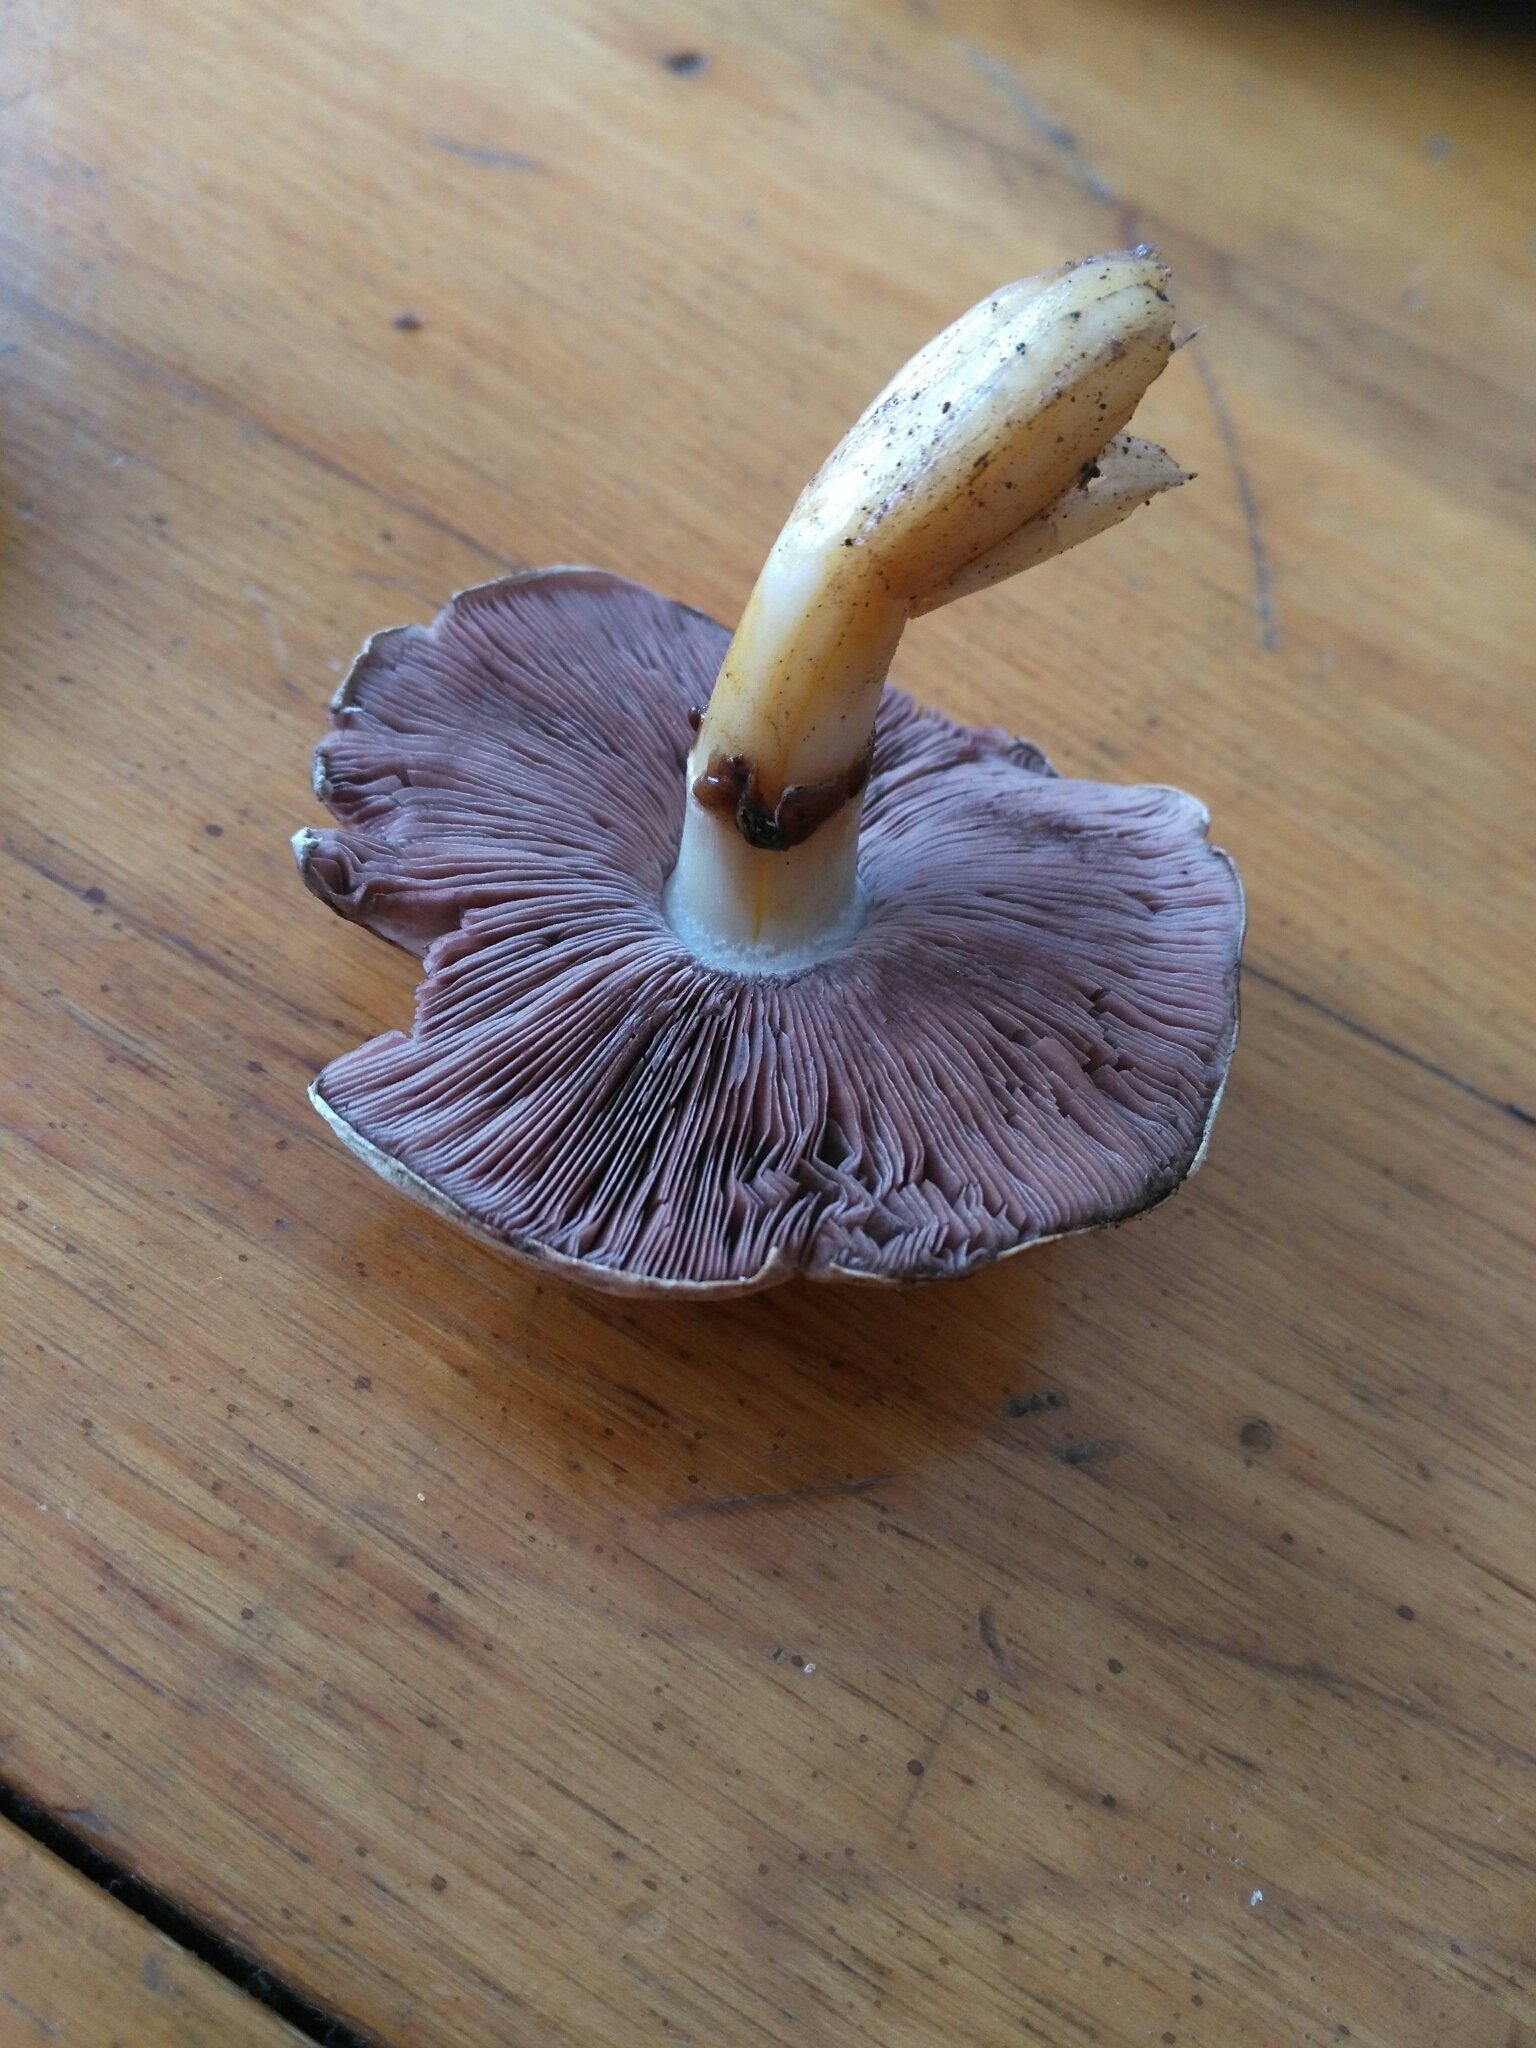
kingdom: Fungi
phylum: Basidiomycota
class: Agaricomycetes
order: Agaricales
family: Agaricaceae
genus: Agaricus
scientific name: Agaricus californicus
